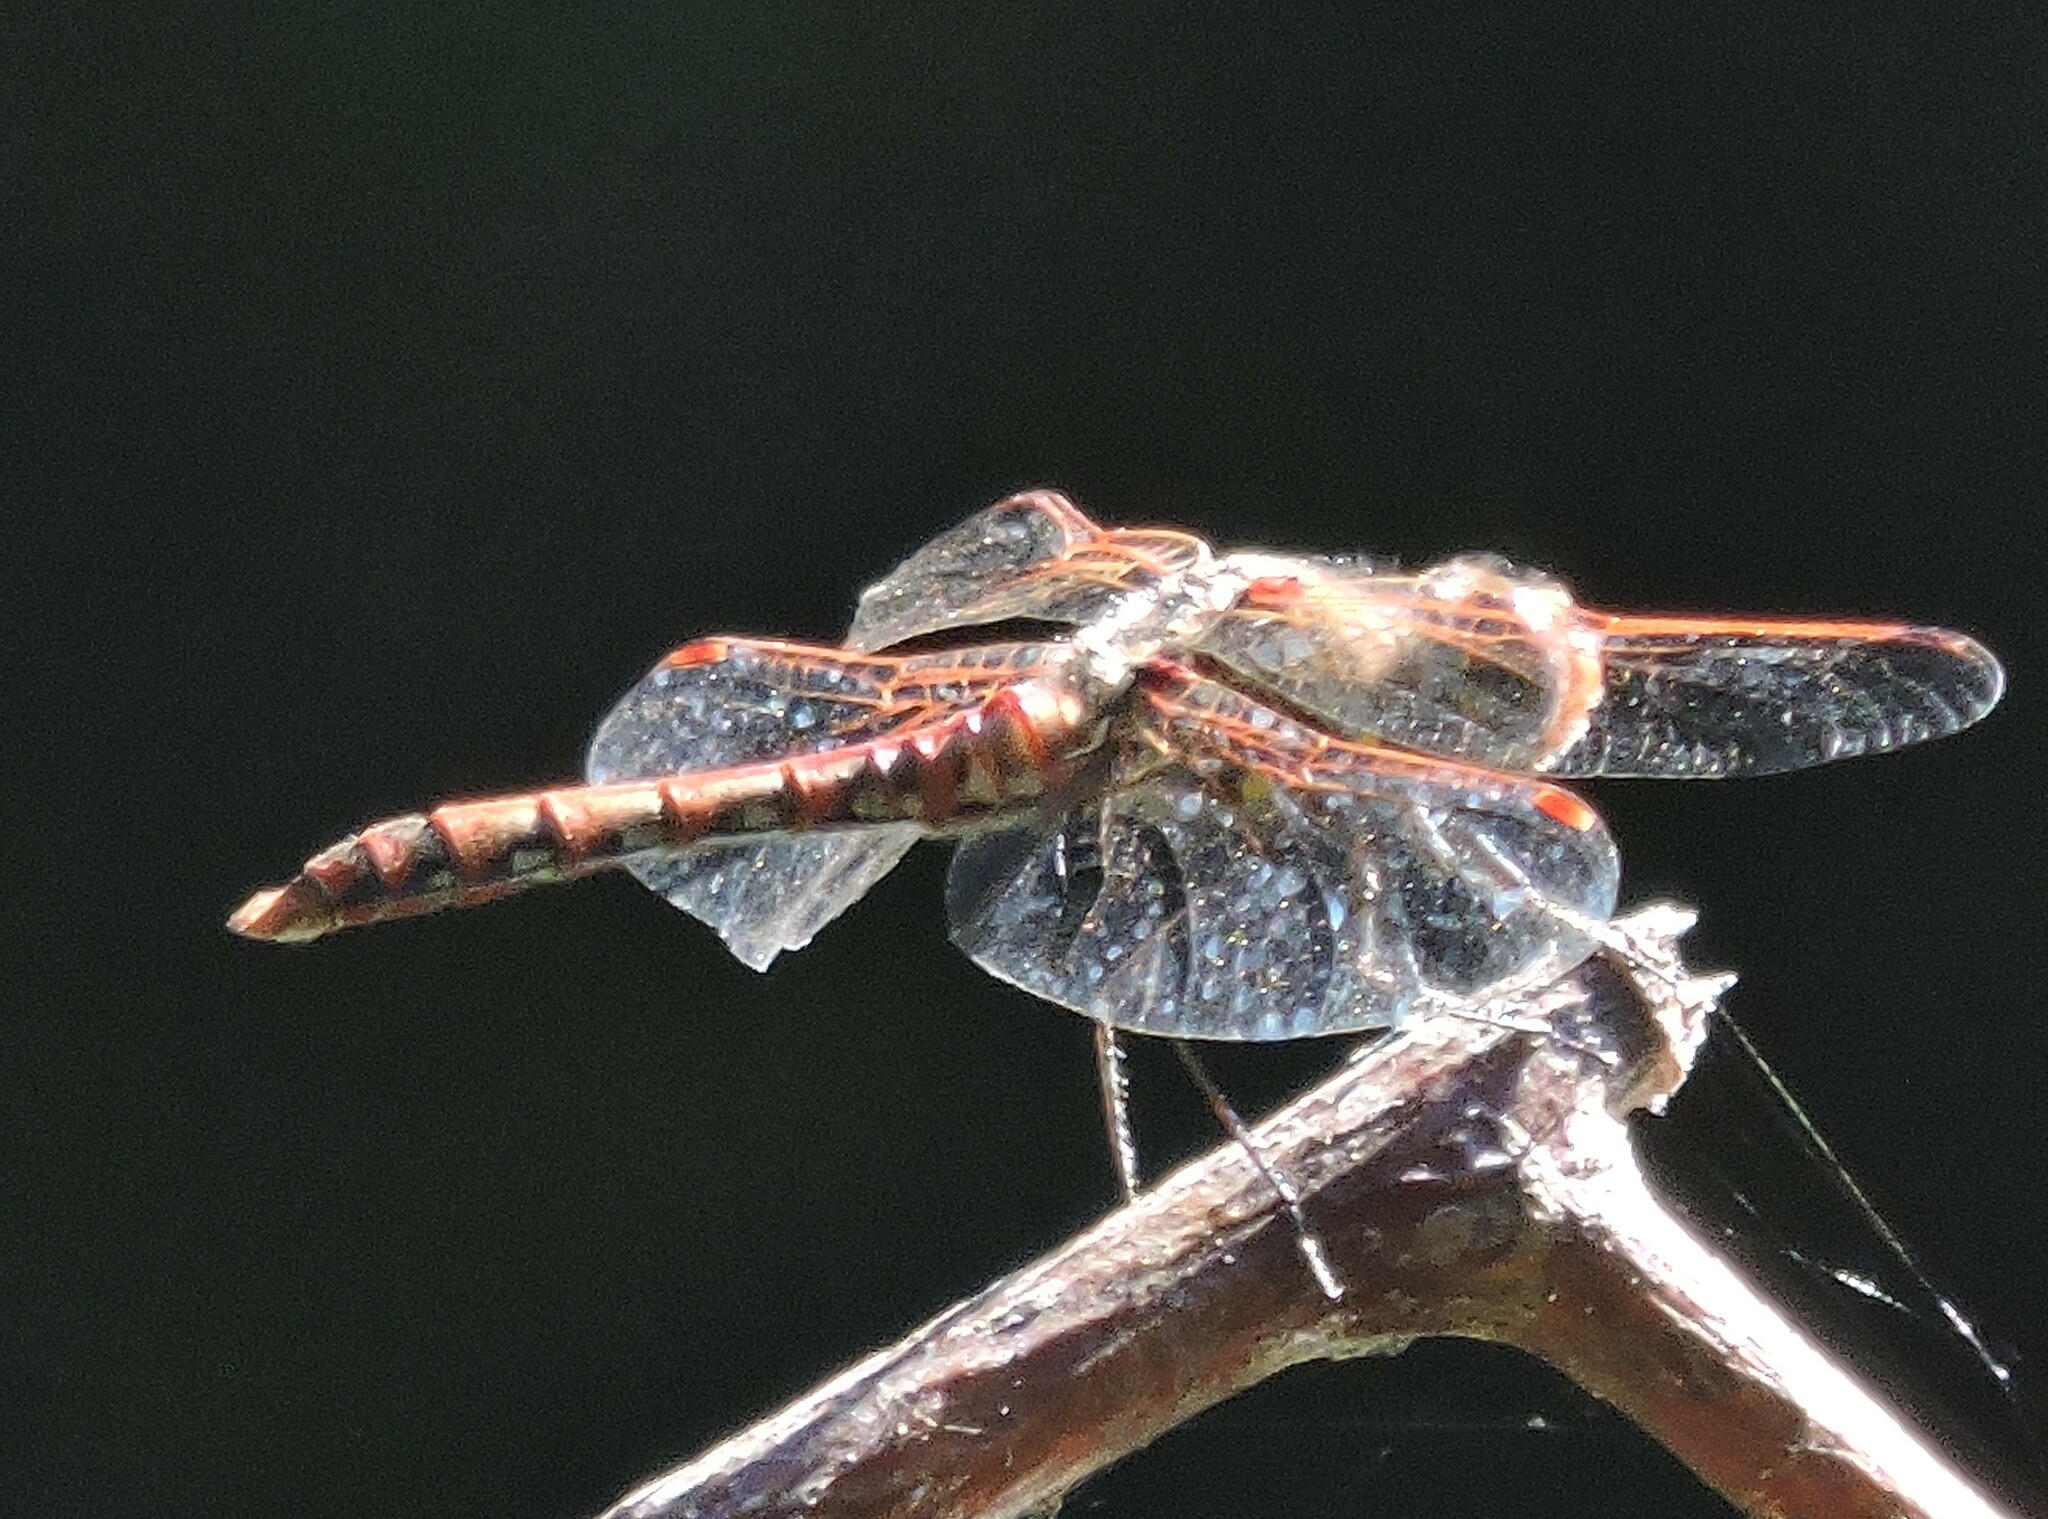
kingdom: Animalia
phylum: Arthropoda
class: Insecta
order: Odonata
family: Libellulidae
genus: Sympetrum
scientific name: Sympetrum corruptum
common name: Variegated meadowhawk
